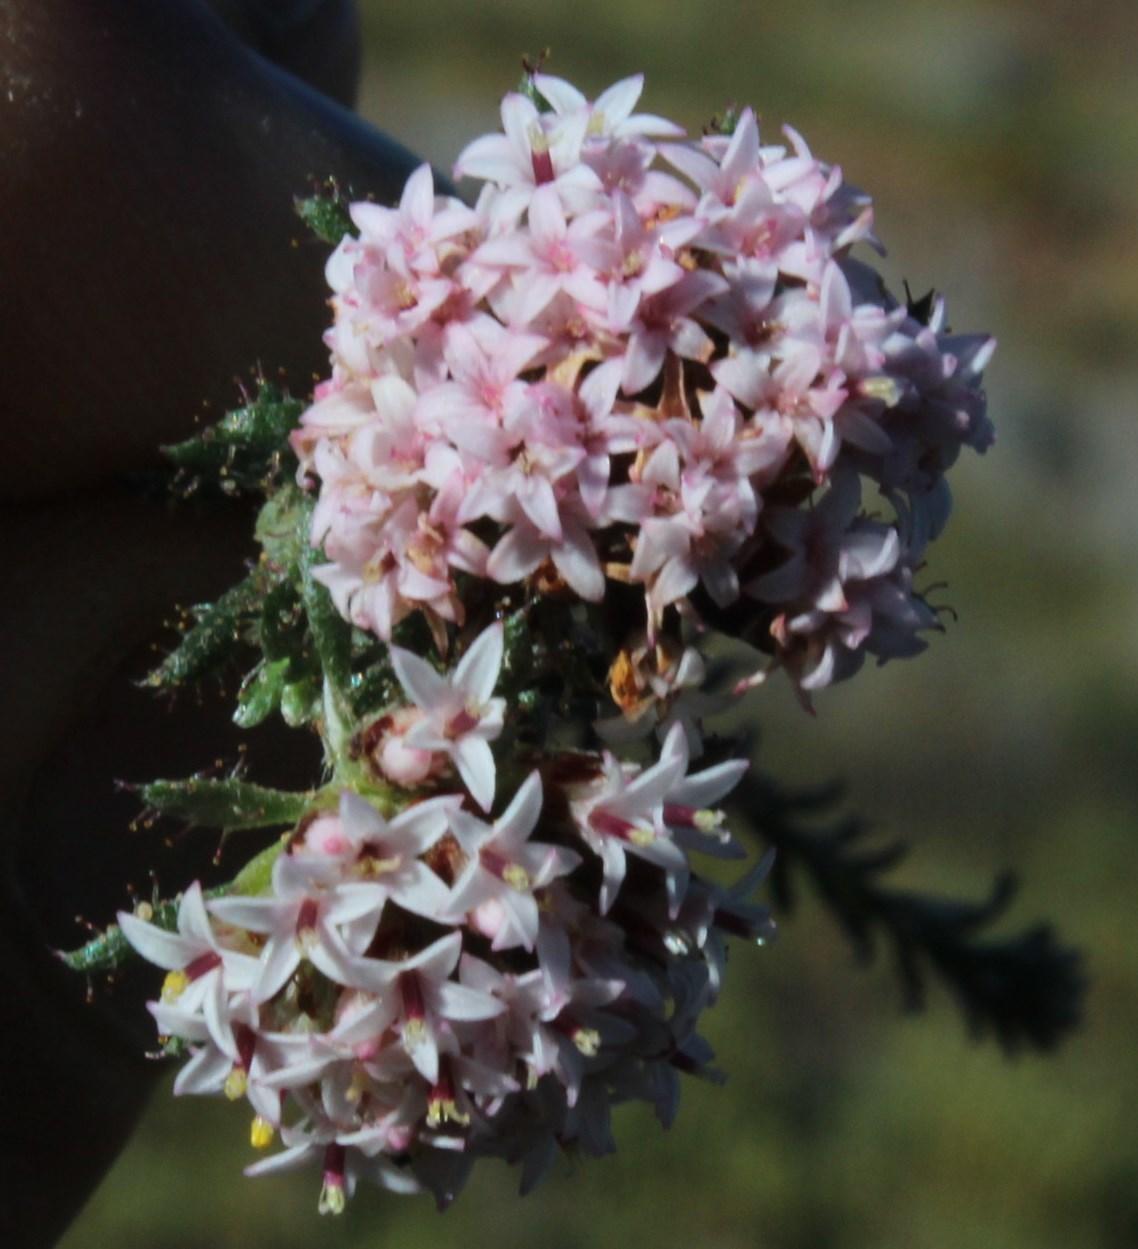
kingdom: Plantae
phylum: Tracheophyta
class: Magnoliopsida
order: Asterales
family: Asteraceae
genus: Elytropappus
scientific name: Elytropappus hispidus
